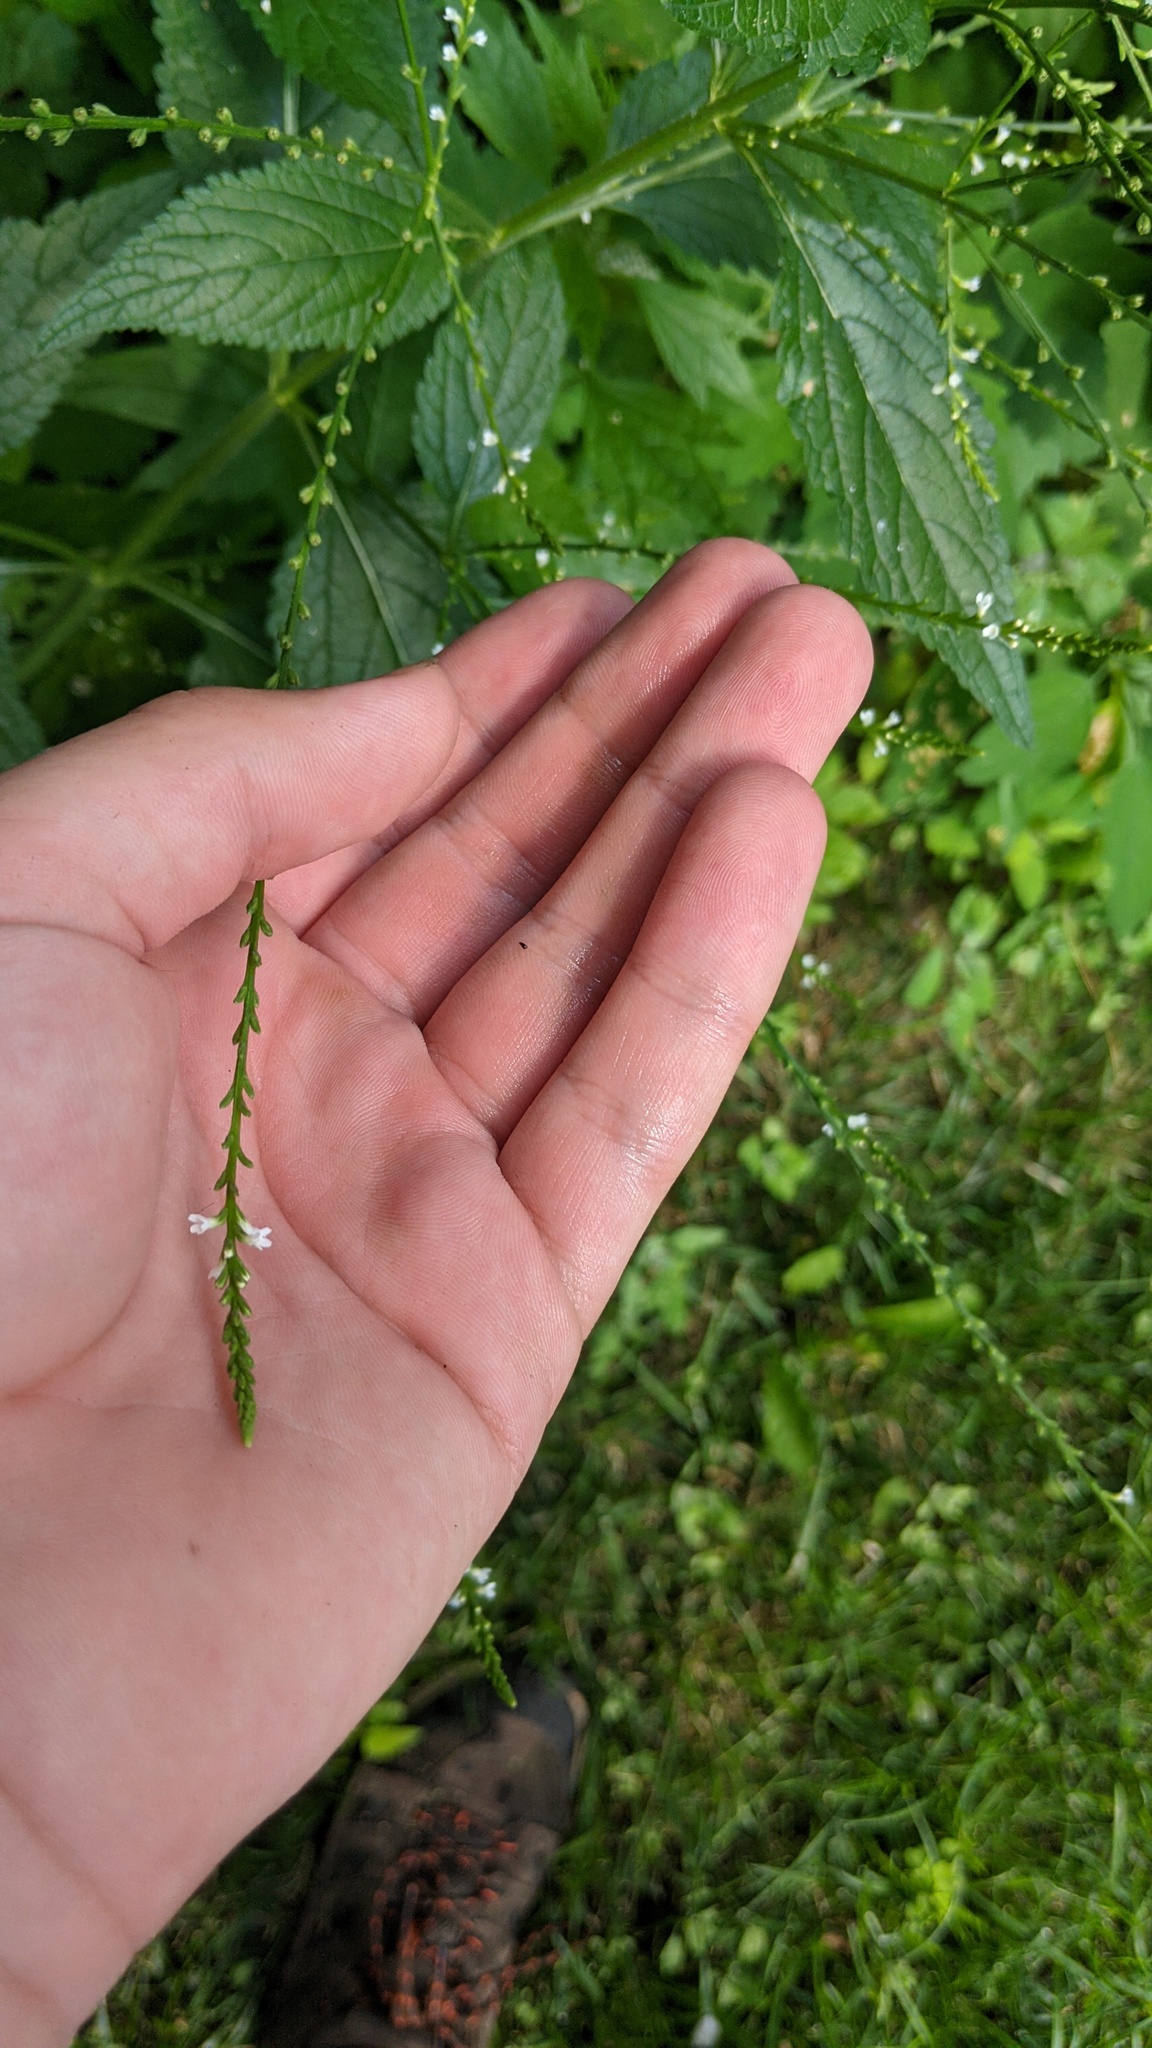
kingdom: Plantae
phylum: Tracheophyta
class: Magnoliopsida
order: Lamiales
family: Verbenaceae
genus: Verbena
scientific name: Verbena urticifolia
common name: Nettle-leaved vervain
